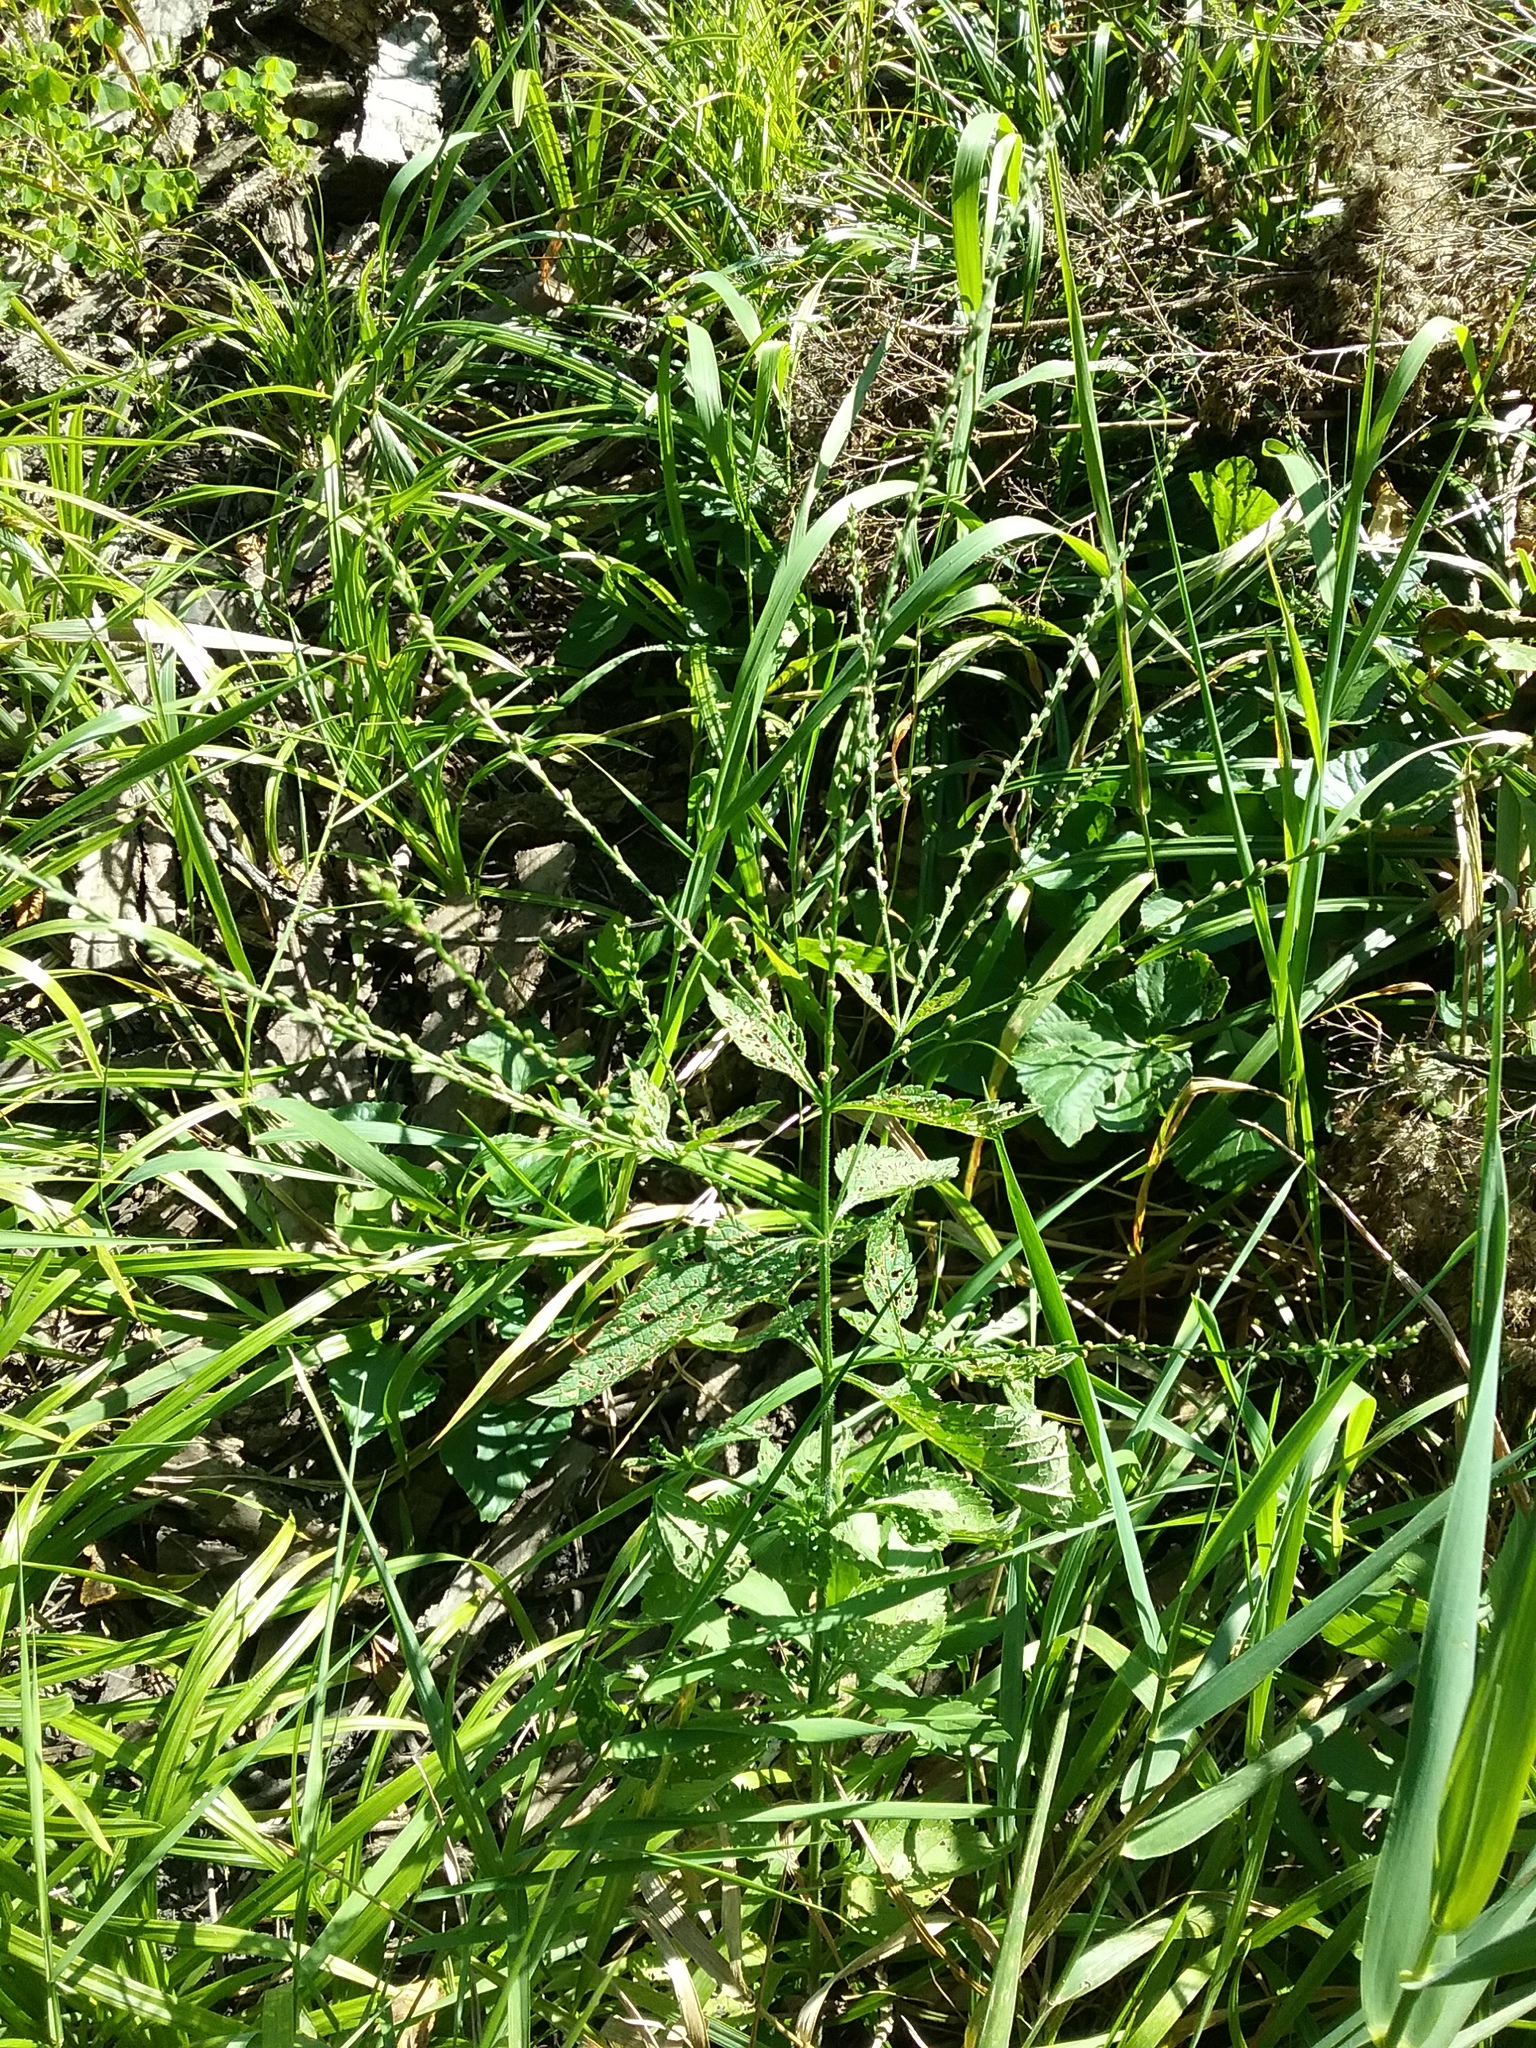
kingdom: Plantae
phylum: Tracheophyta
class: Magnoliopsida
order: Lamiales
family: Verbenaceae
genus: Verbena
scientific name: Verbena urticifolia
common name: Nettle-leaved vervain
